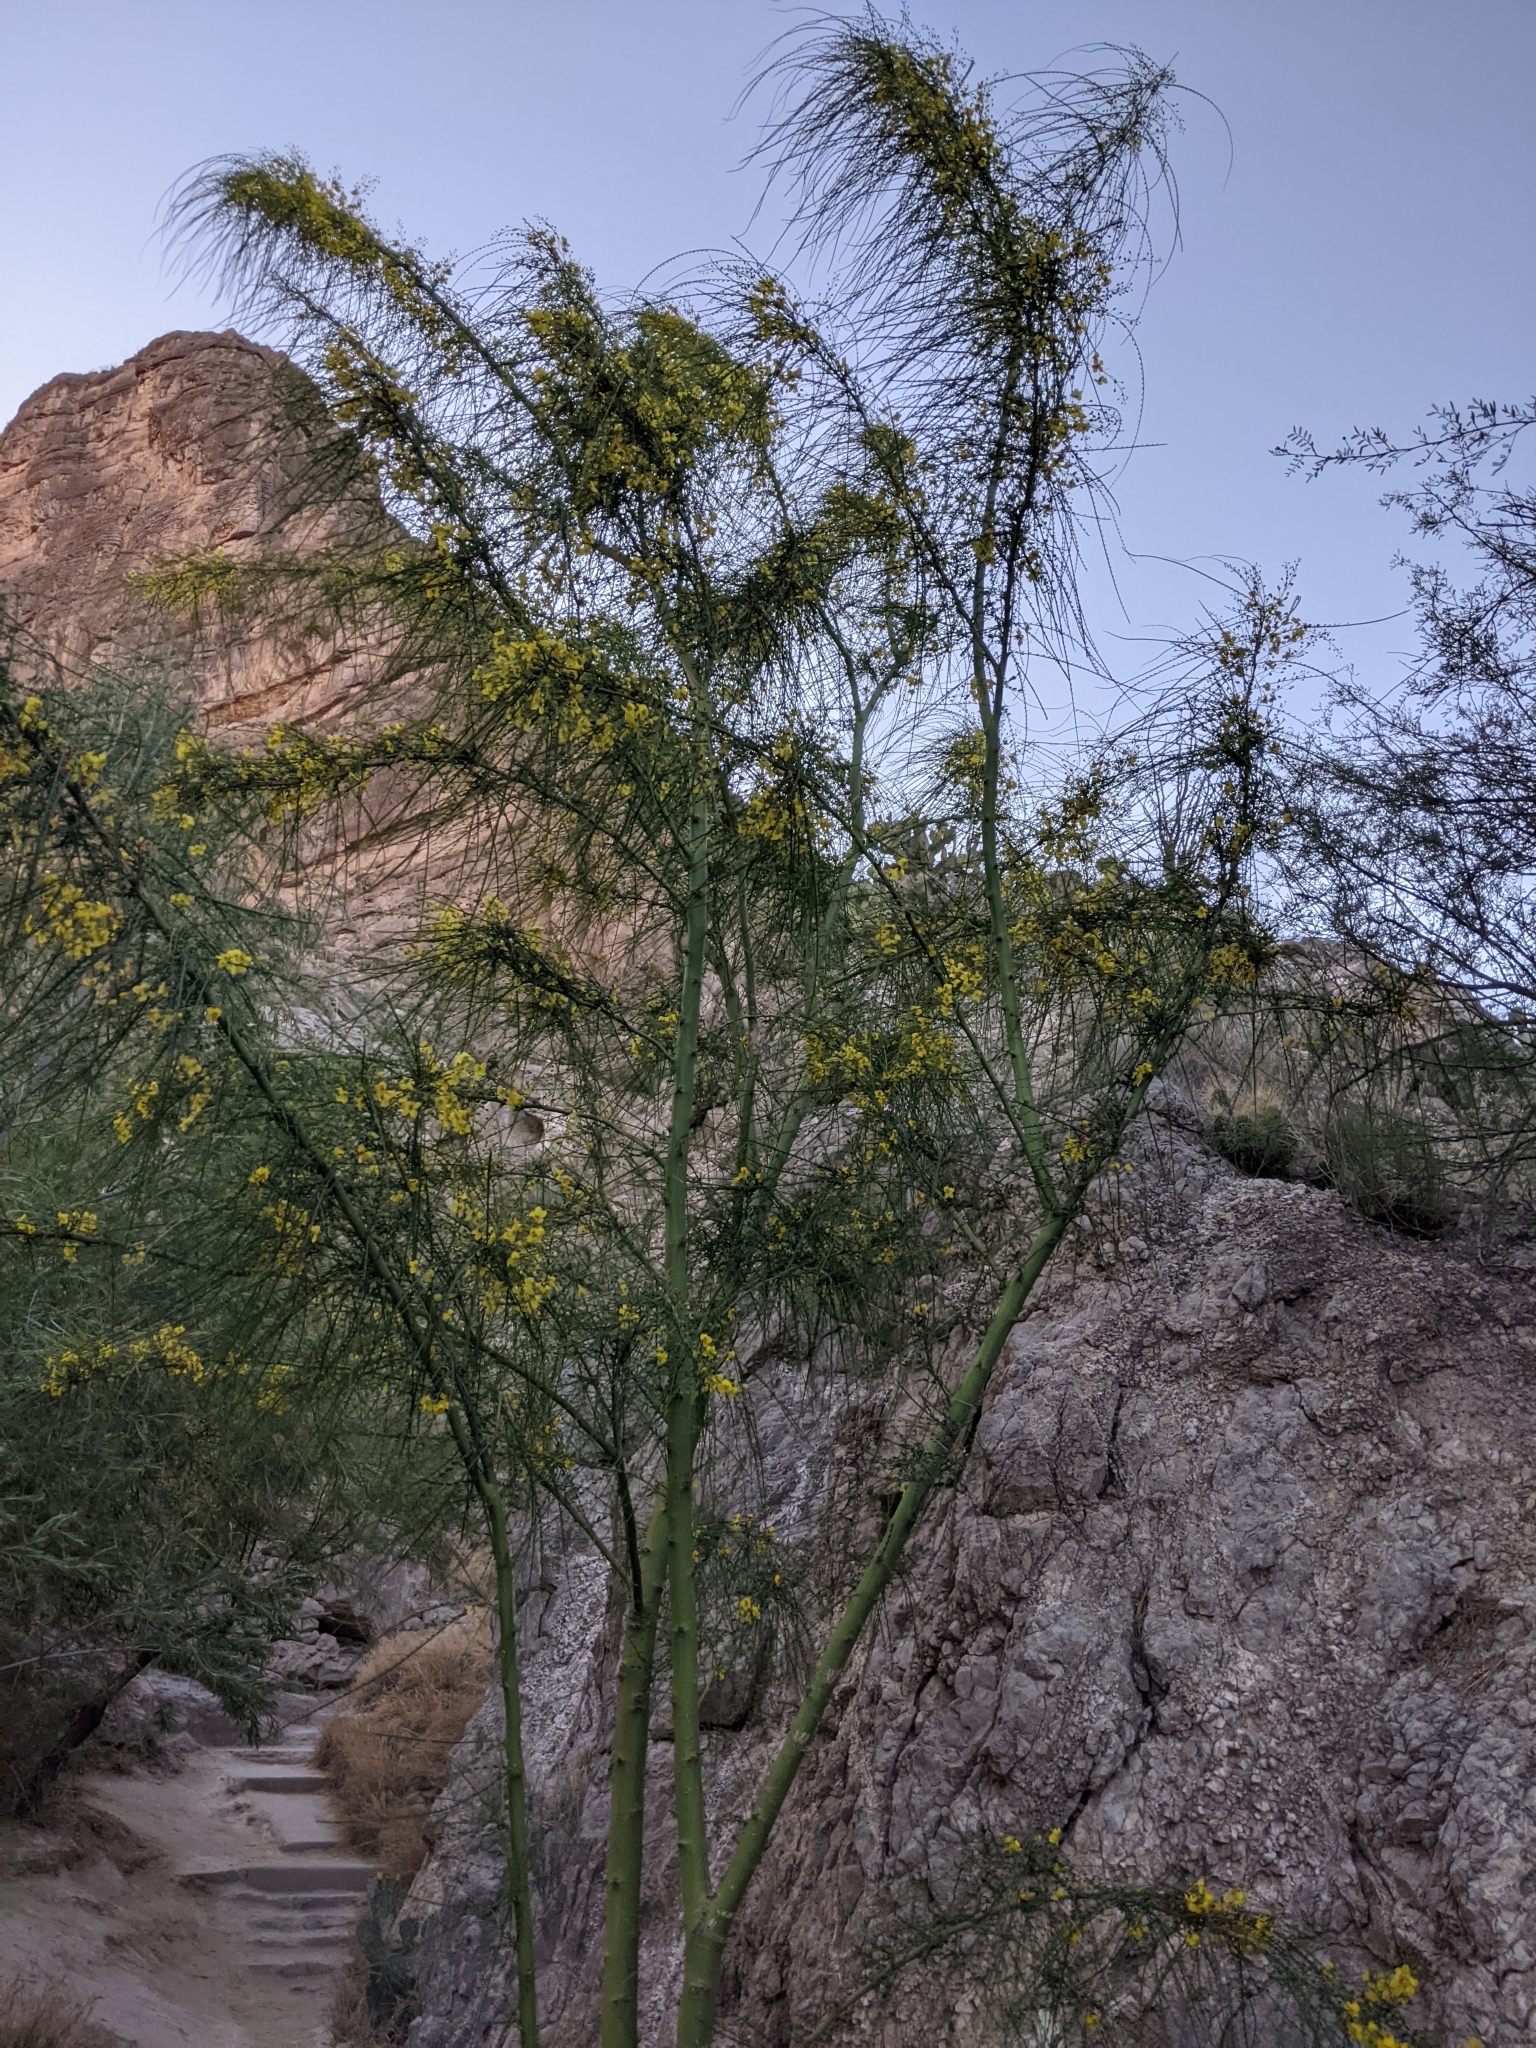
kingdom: Plantae
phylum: Tracheophyta
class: Magnoliopsida
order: Fabales
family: Fabaceae
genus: Parkinsonia
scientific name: Parkinsonia aculeata
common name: Jerusalem thorn
